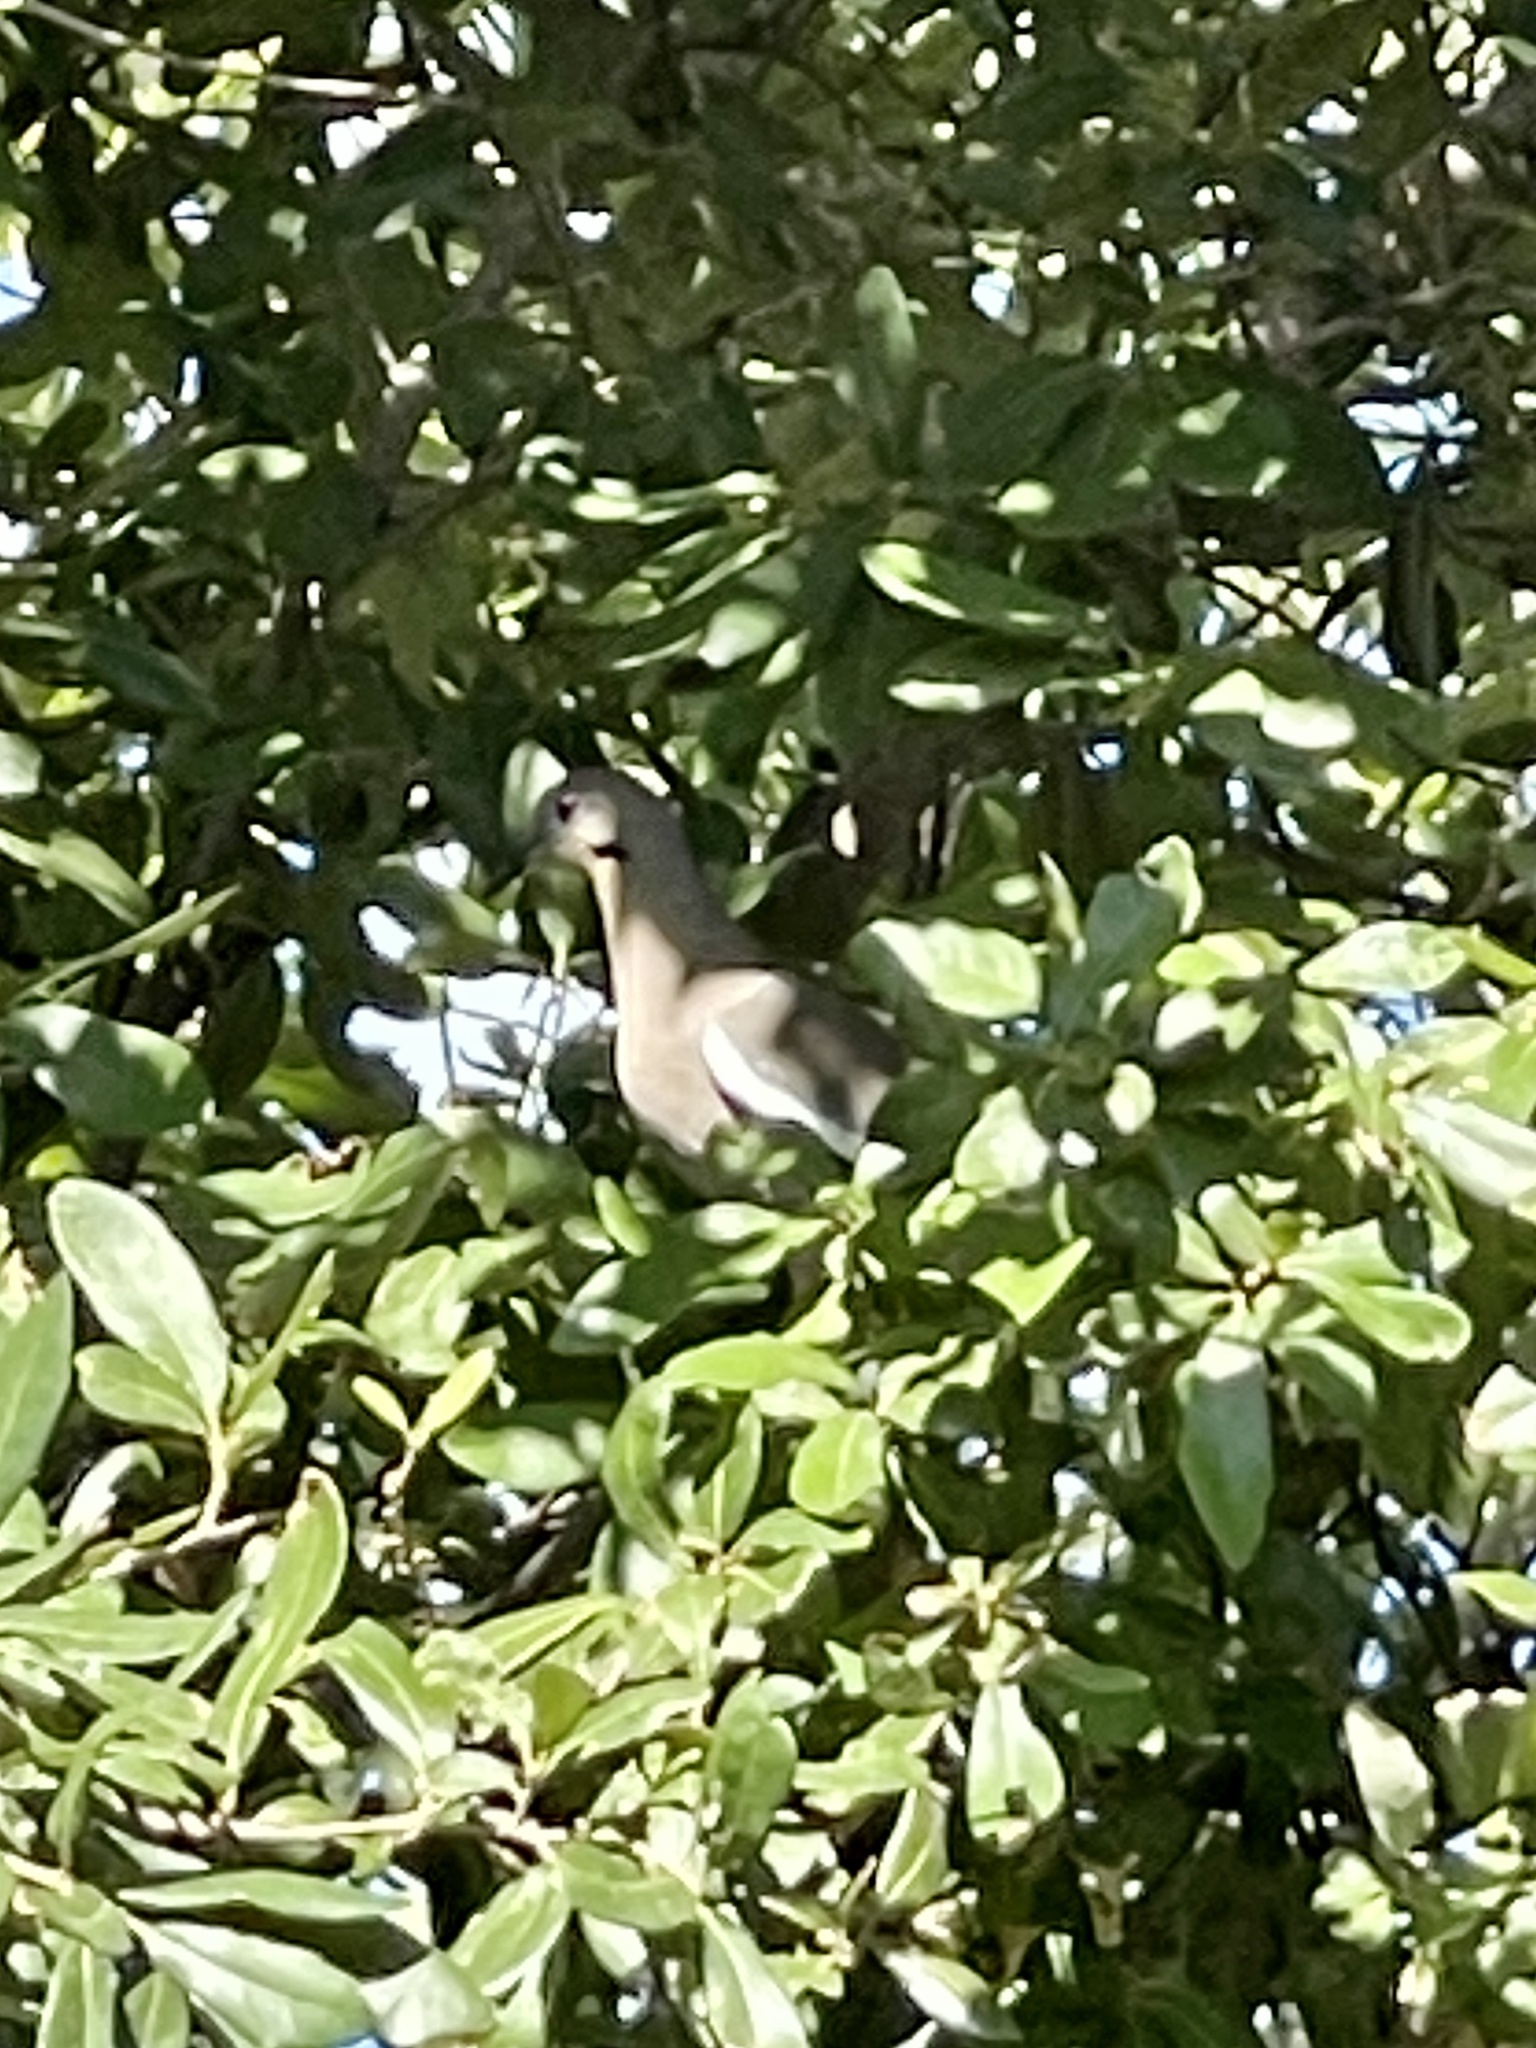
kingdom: Animalia
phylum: Chordata
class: Aves
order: Columbiformes
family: Columbidae
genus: Zenaida
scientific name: Zenaida asiatica
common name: White-winged dove
